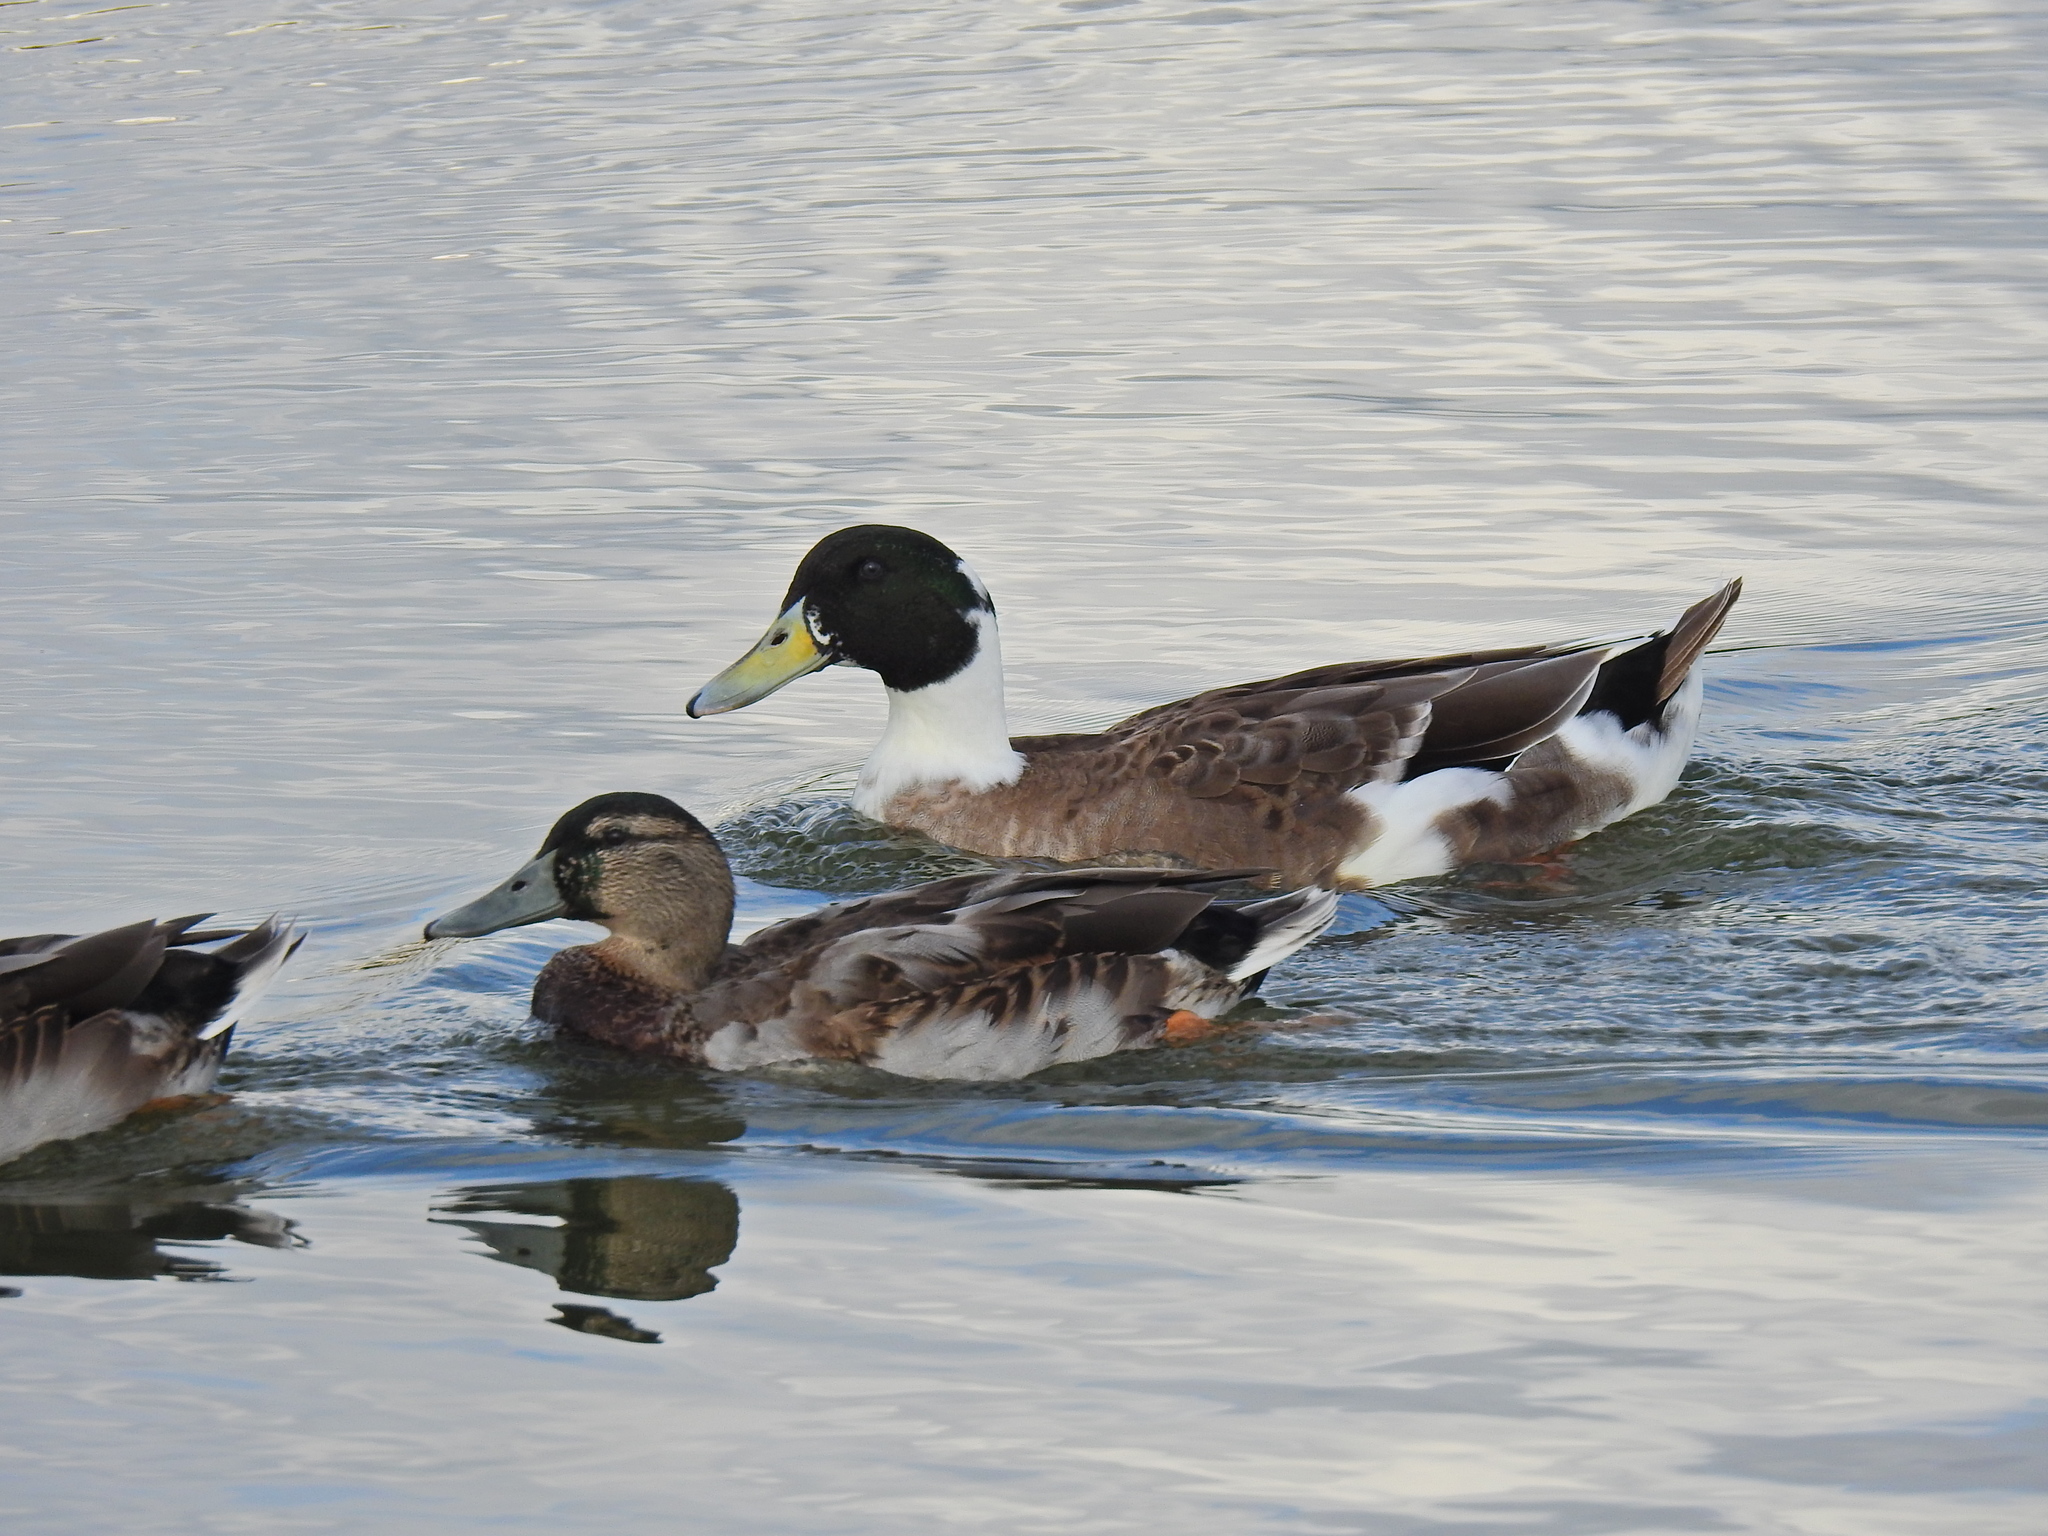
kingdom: Animalia
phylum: Chordata
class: Aves
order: Anseriformes
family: Anatidae
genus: Anas
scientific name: Anas platyrhynchos
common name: Mallard
